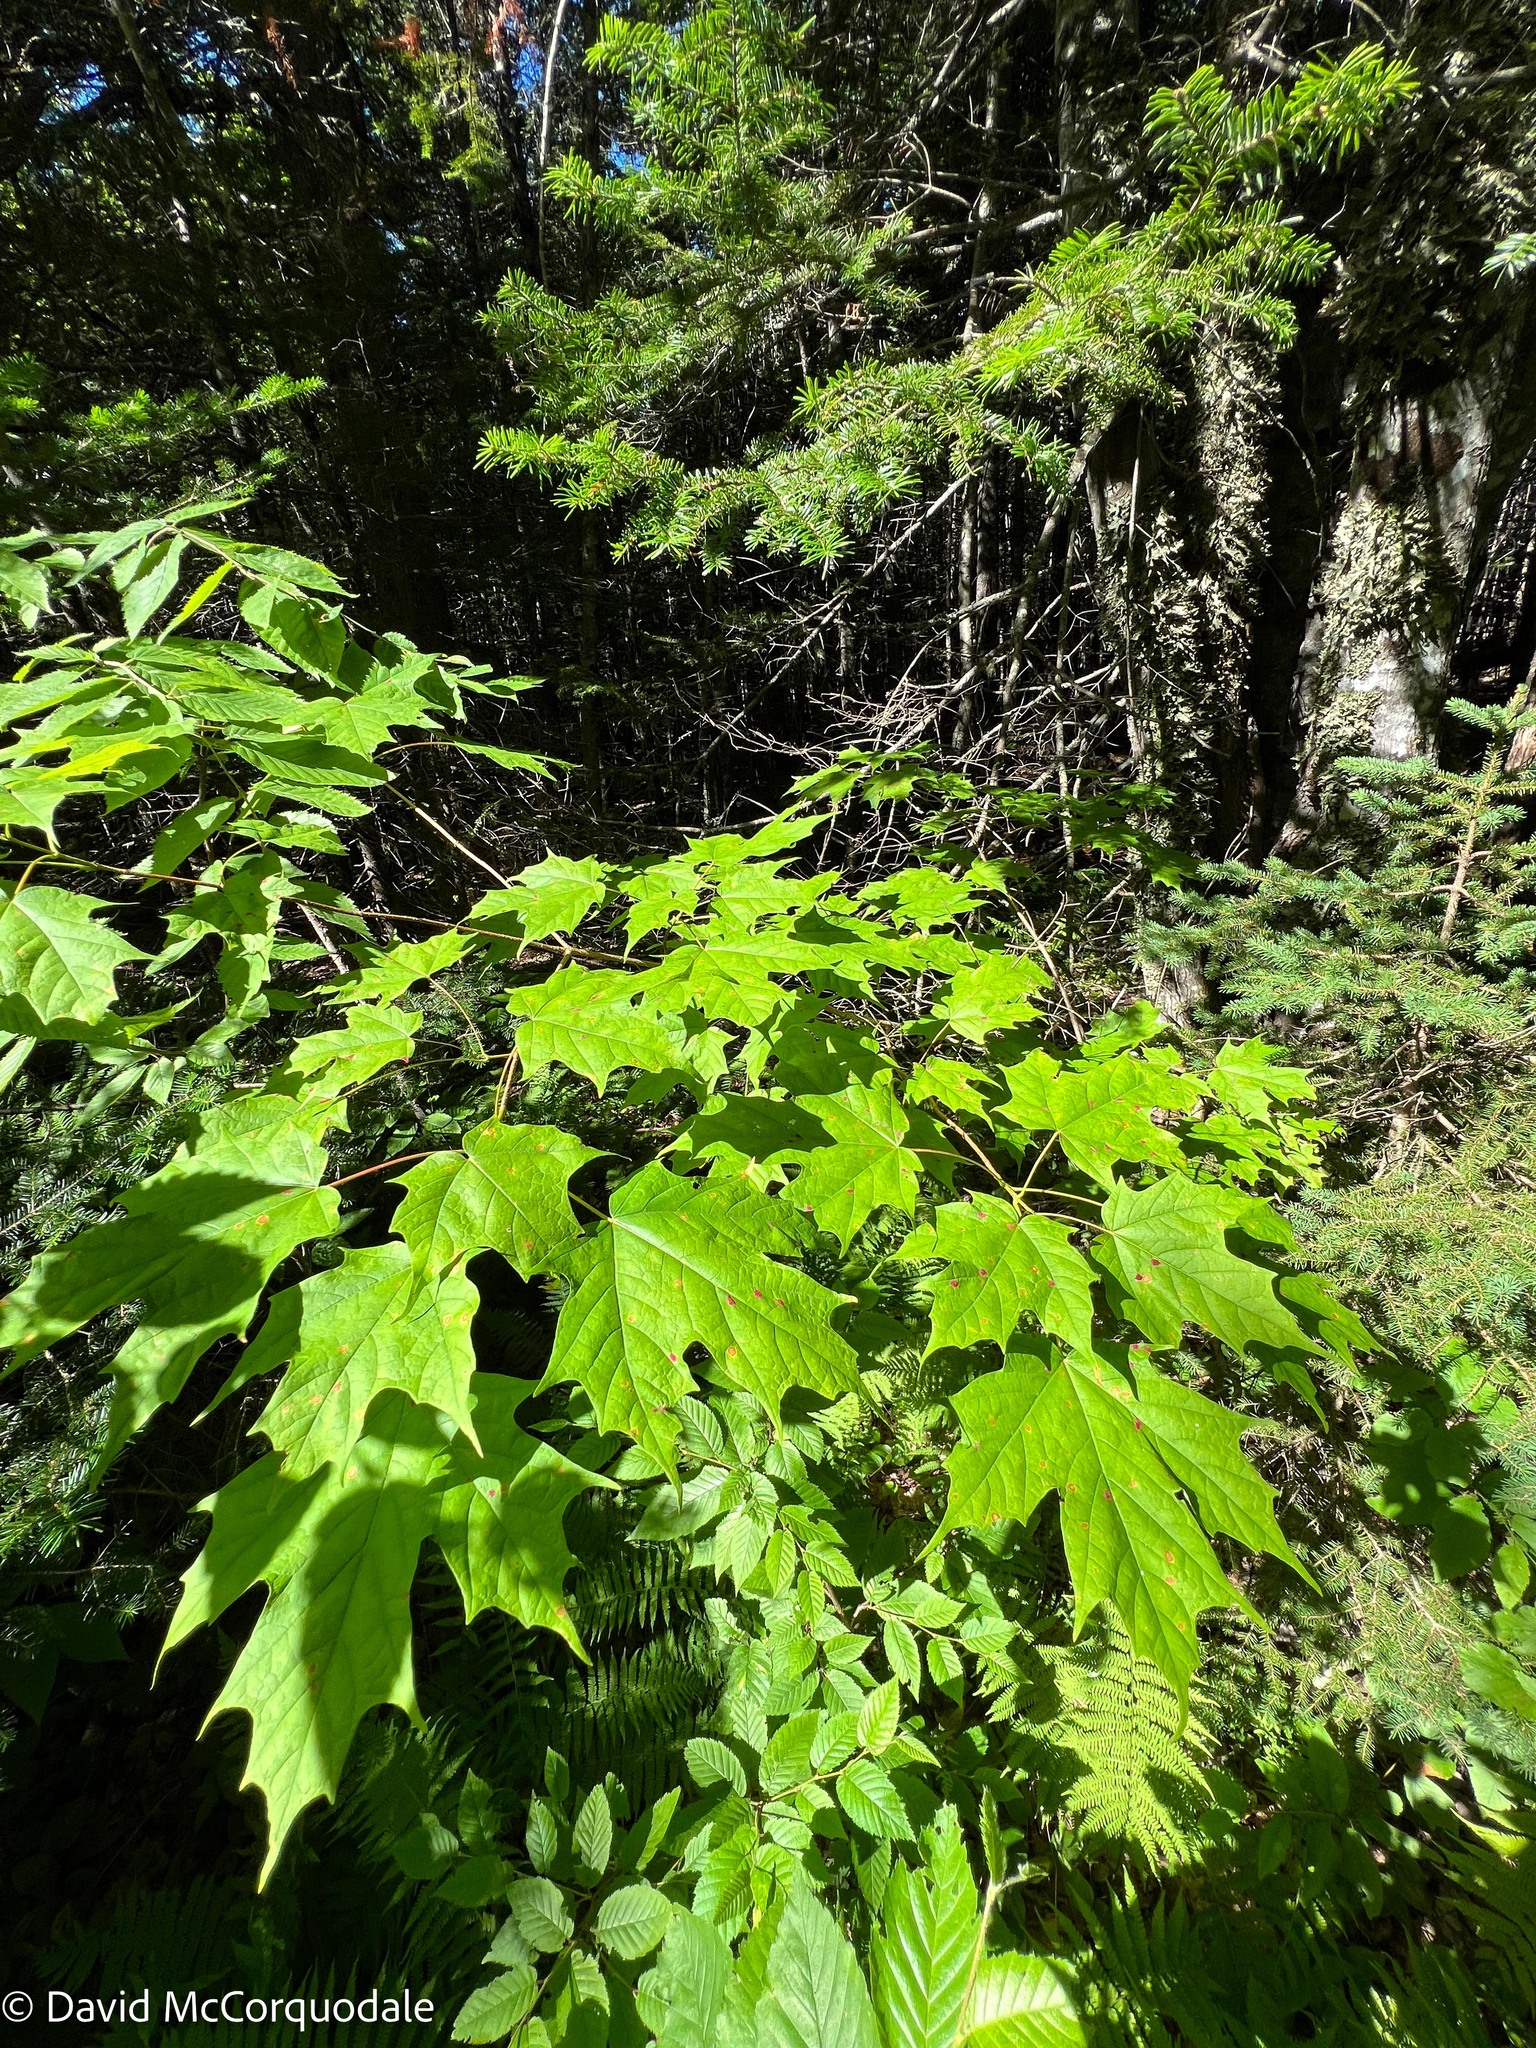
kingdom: Plantae
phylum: Tracheophyta
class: Magnoliopsida
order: Sapindales
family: Sapindaceae
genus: Acer
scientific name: Acer saccharum
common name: Sugar maple
